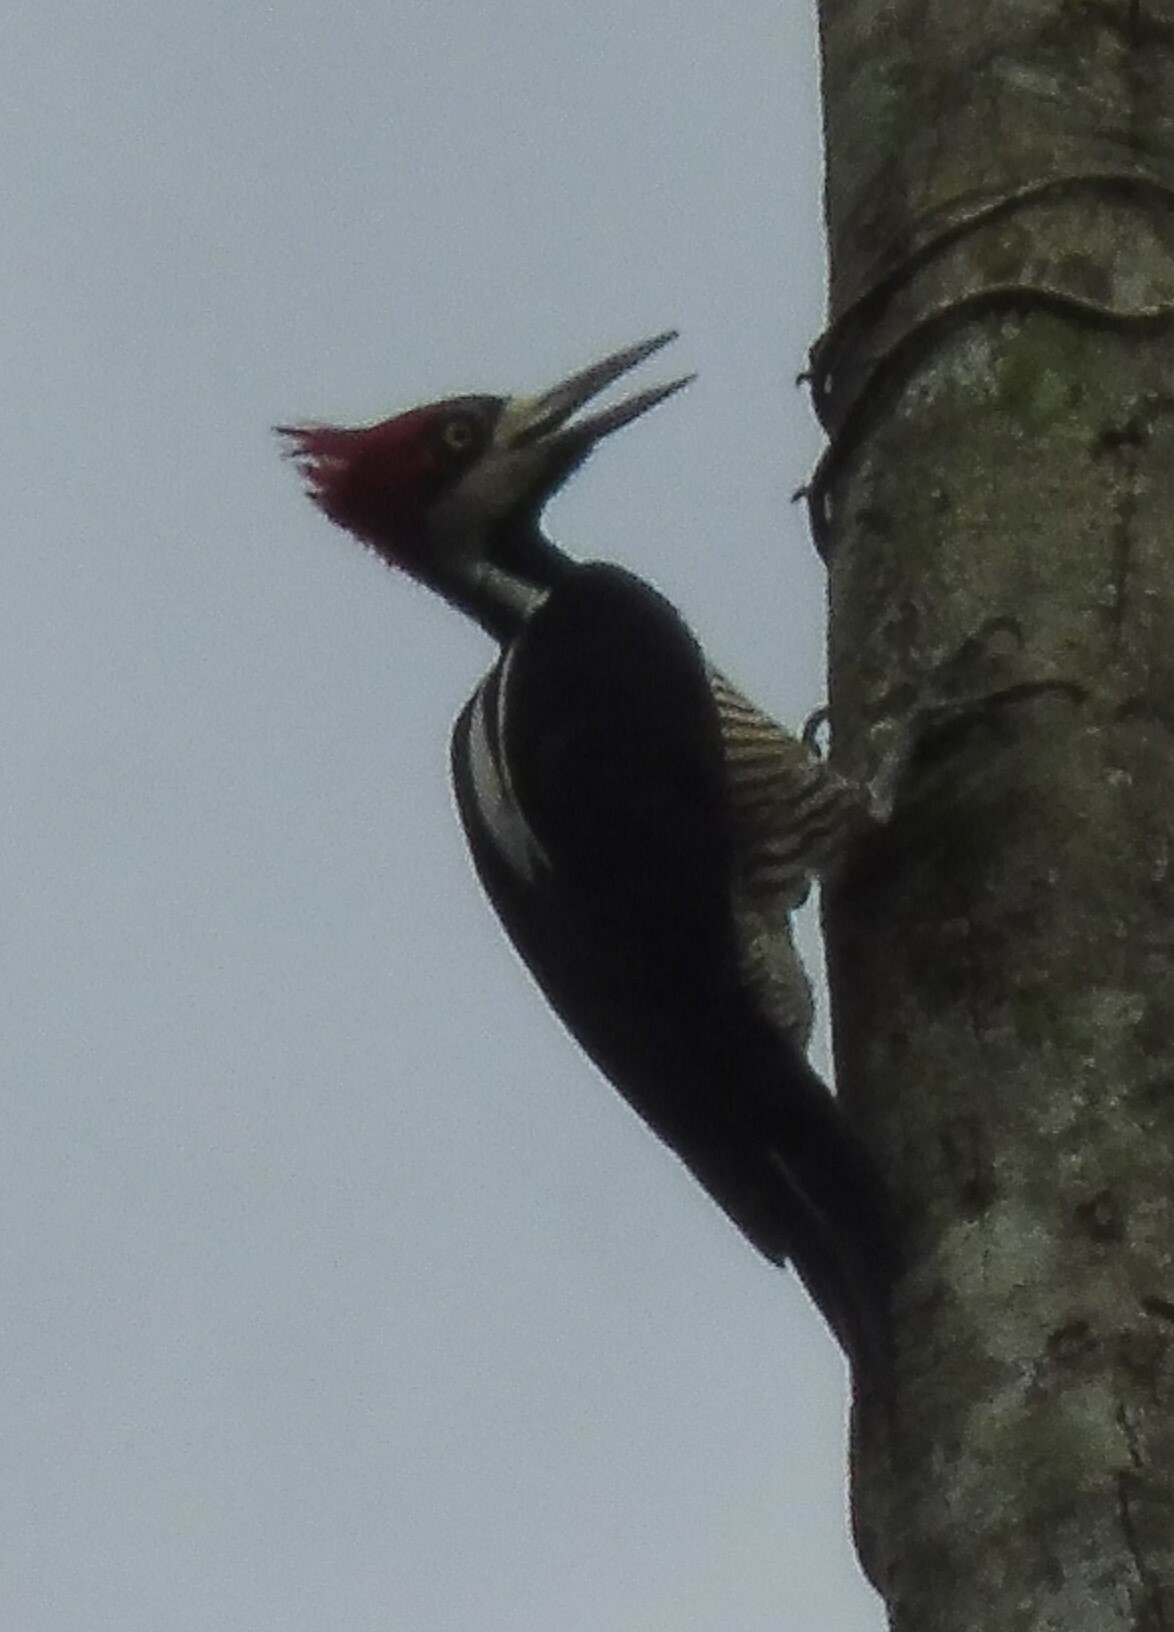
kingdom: Animalia
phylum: Chordata
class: Aves
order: Piciformes
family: Picidae
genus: Campephilus
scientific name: Campephilus melanoleucos
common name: Crimson-crested woodpecker
